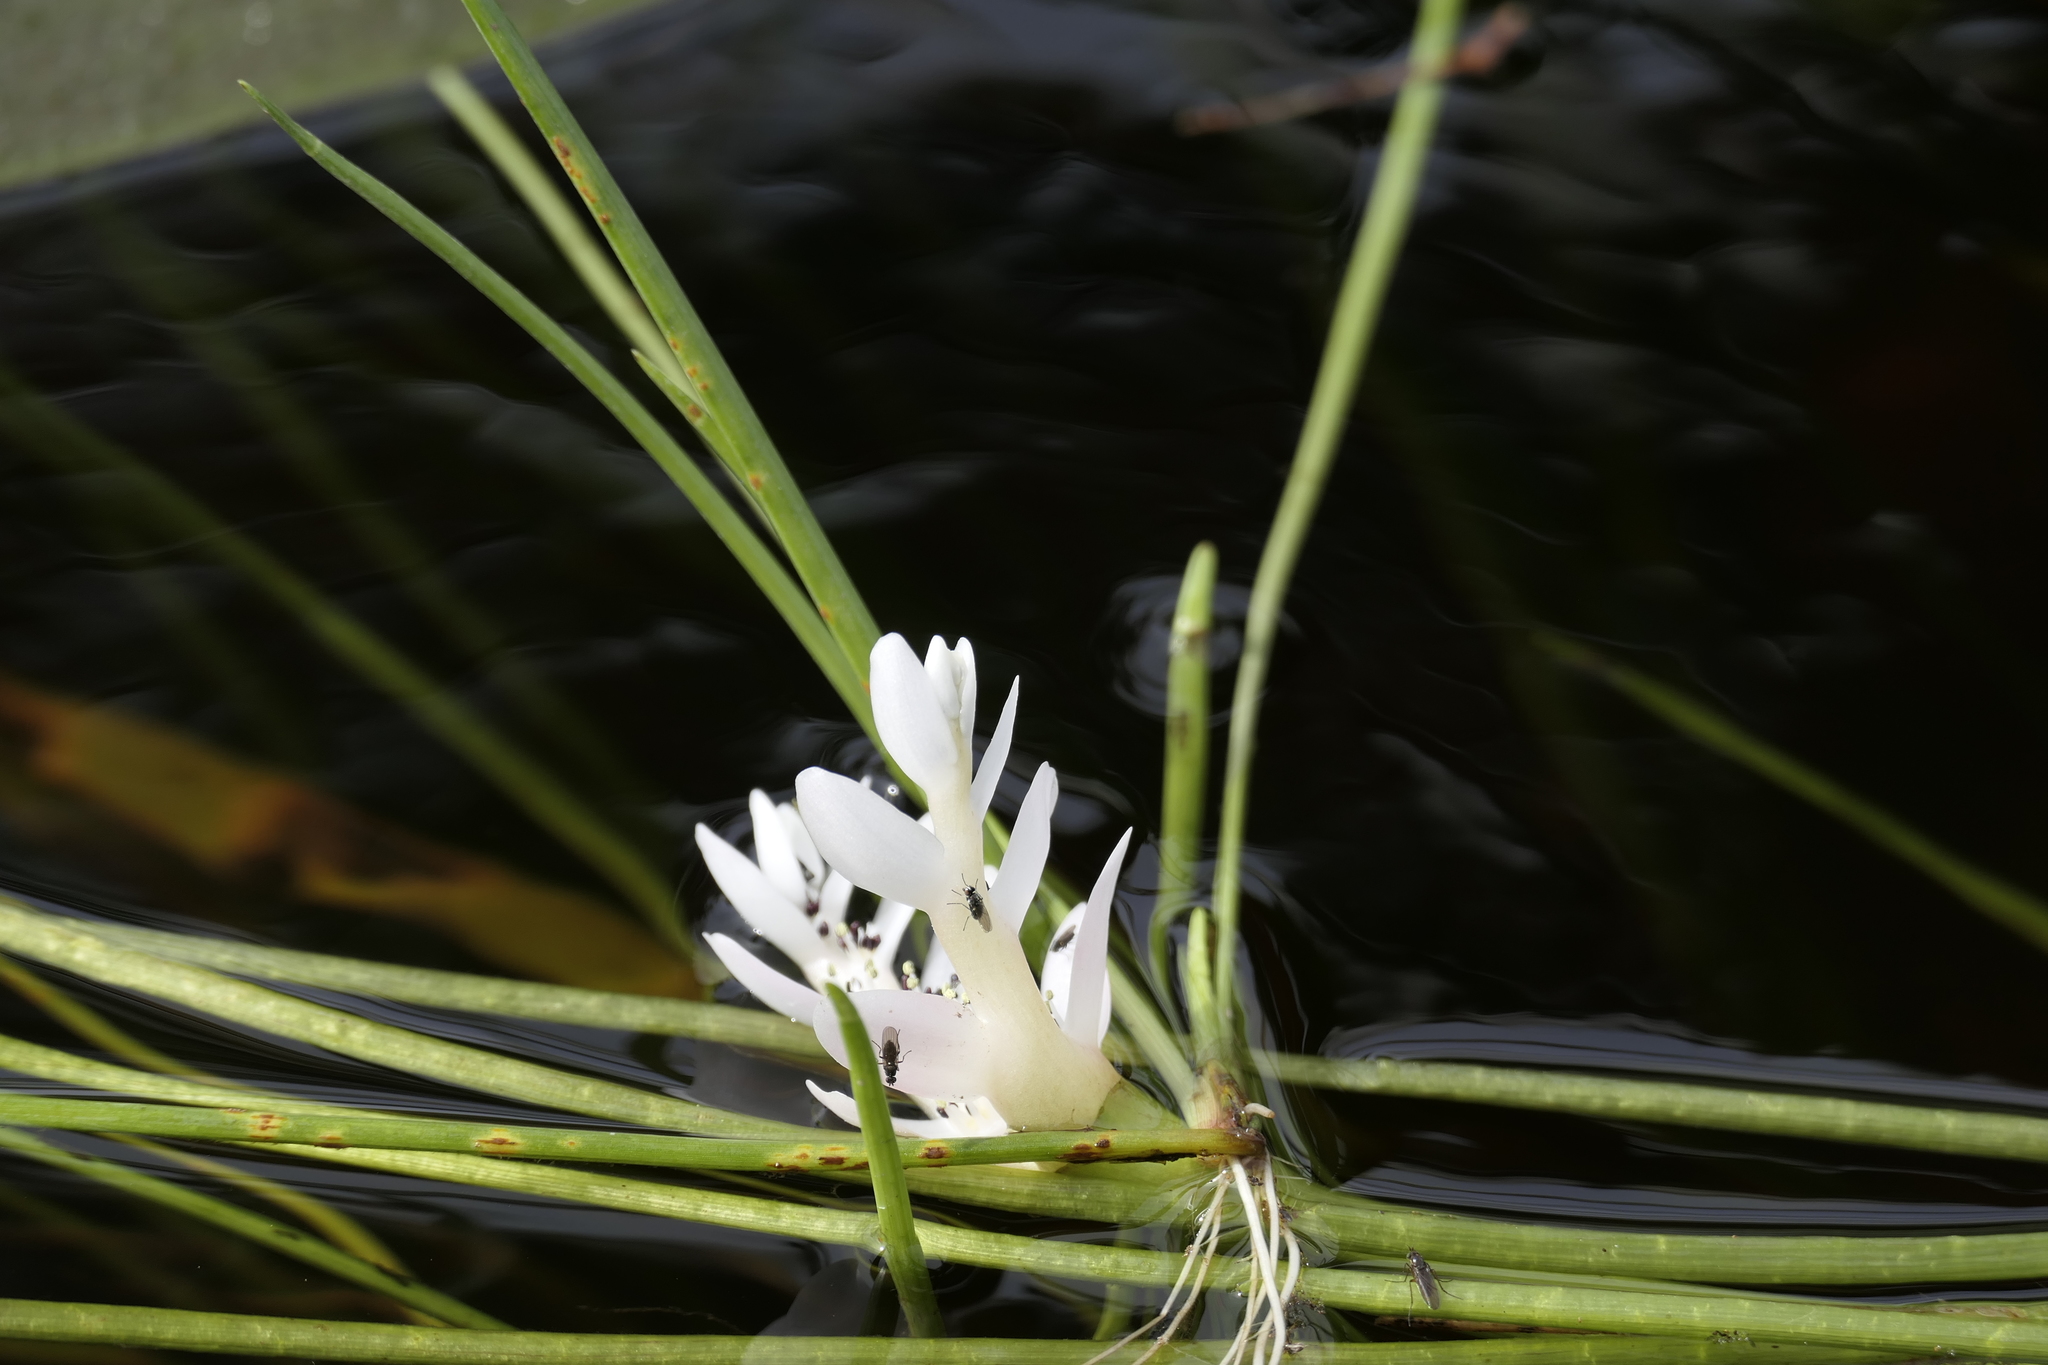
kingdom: Plantae
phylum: Tracheophyta
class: Liliopsida
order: Alismatales
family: Aponogetonaceae
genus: Aponogeton
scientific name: Aponogeton distachyos
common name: Cape-pondweed
